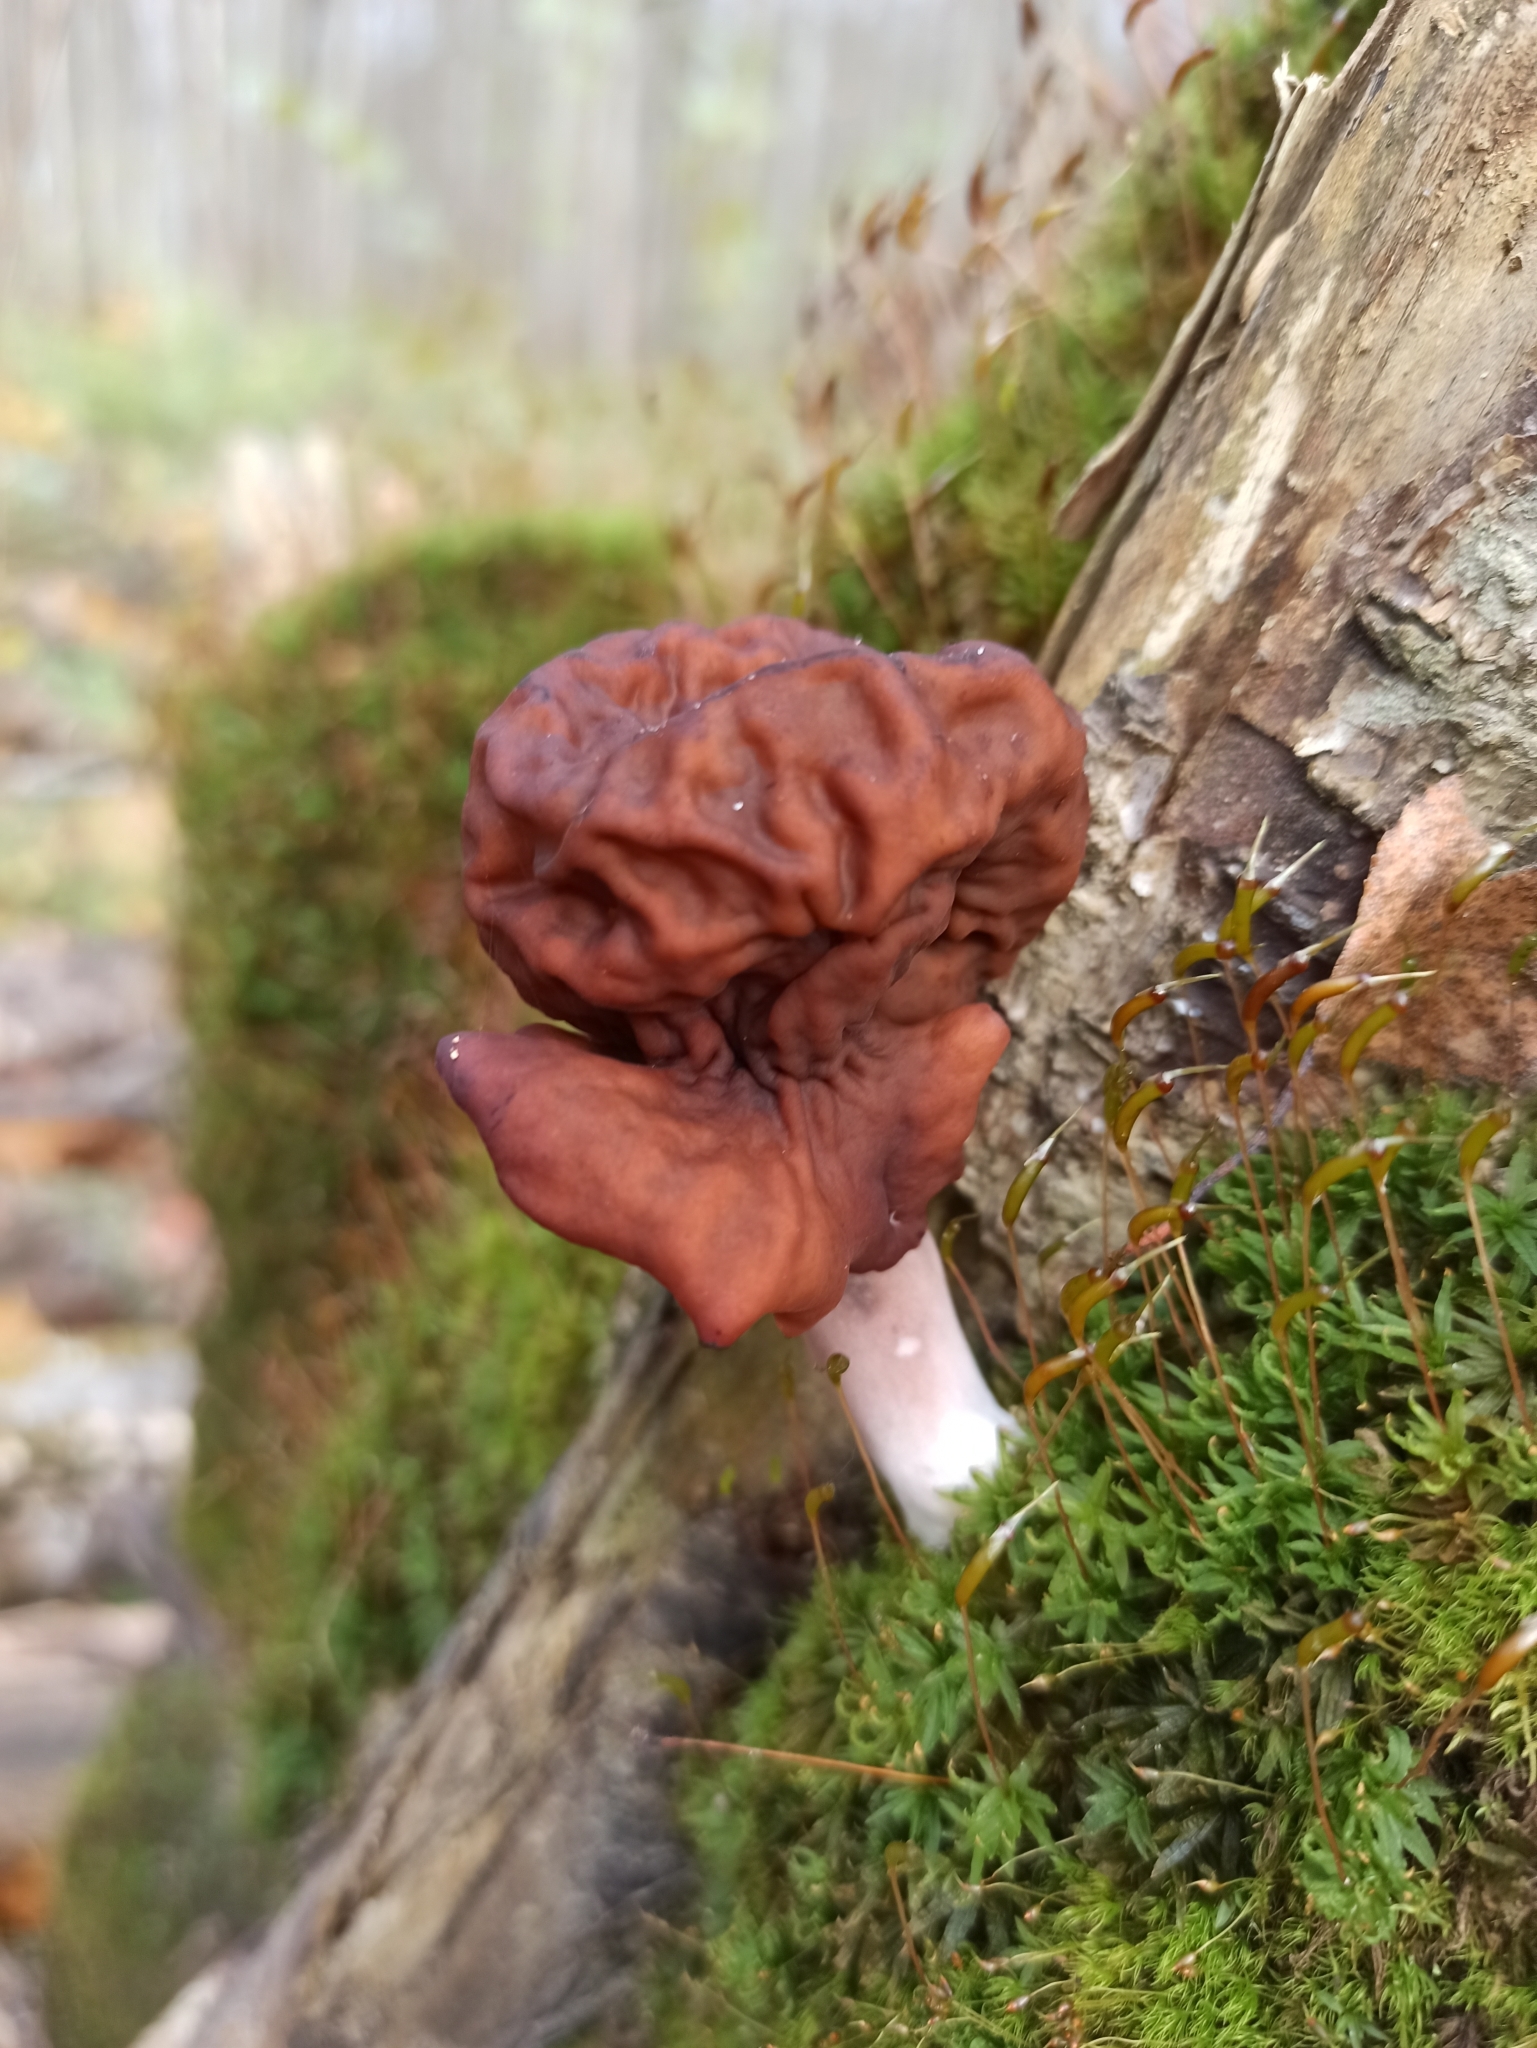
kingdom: Fungi
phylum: Ascomycota
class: Pezizomycetes
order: Pezizales
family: Discinaceae
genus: Gyromitra
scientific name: Gyromitra infula
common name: Pouched false morel
